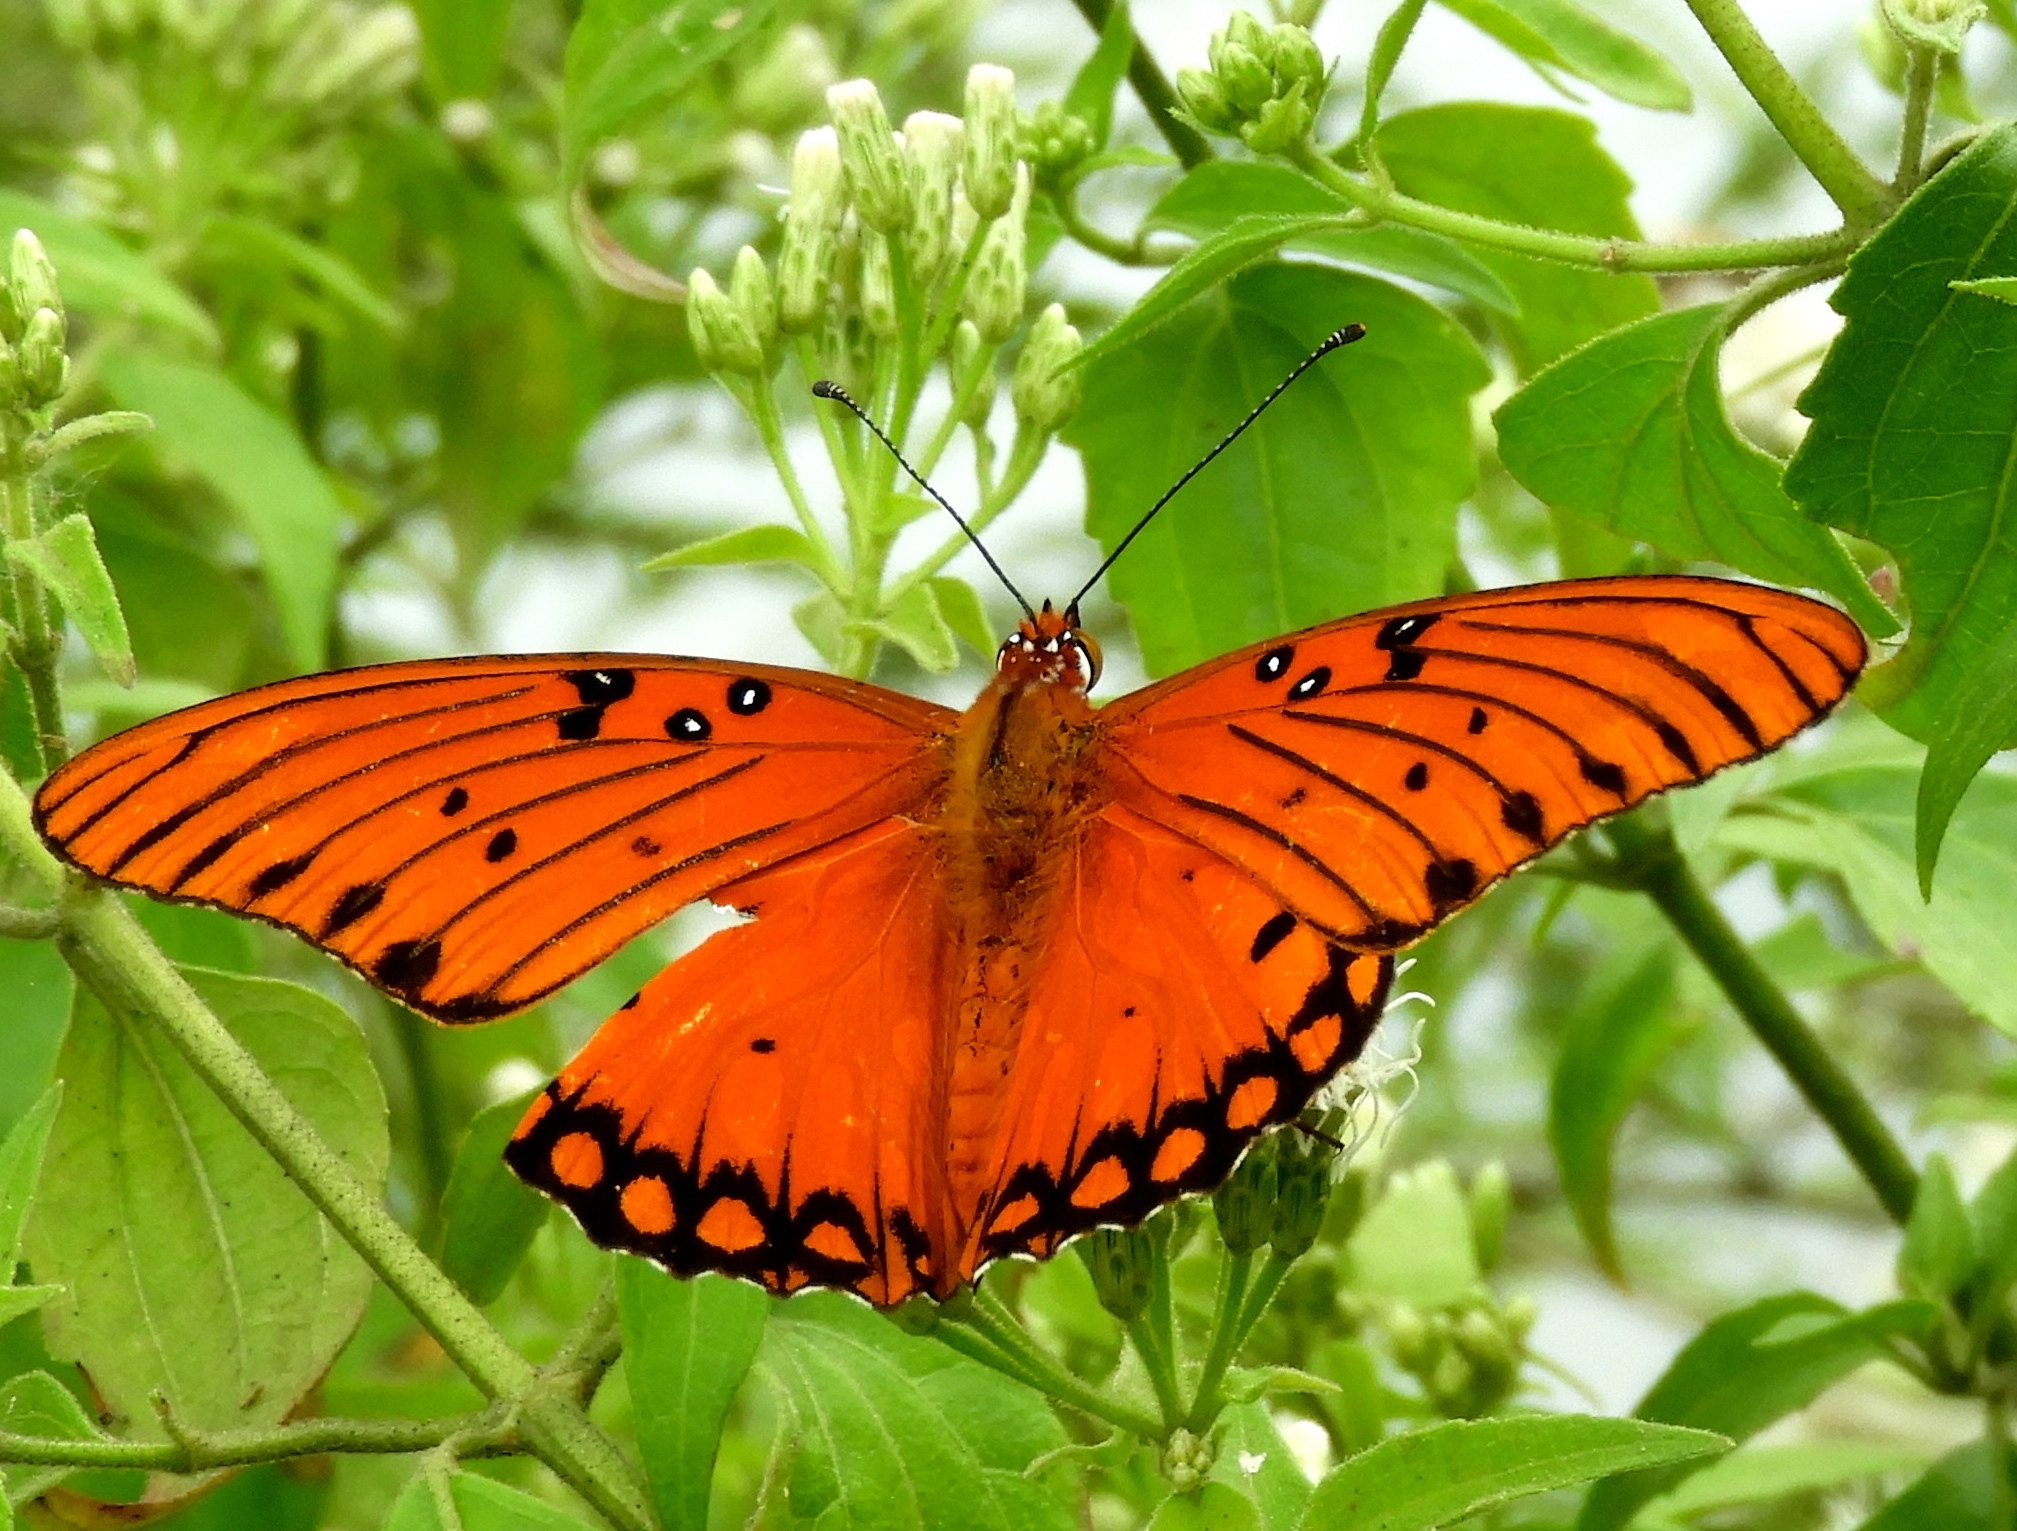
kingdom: Animalia
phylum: Arthropoda
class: Insecta
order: Lepidoptera
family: Nymphalidae
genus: Dione
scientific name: Dione vanillae
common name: Gulf fritillary
